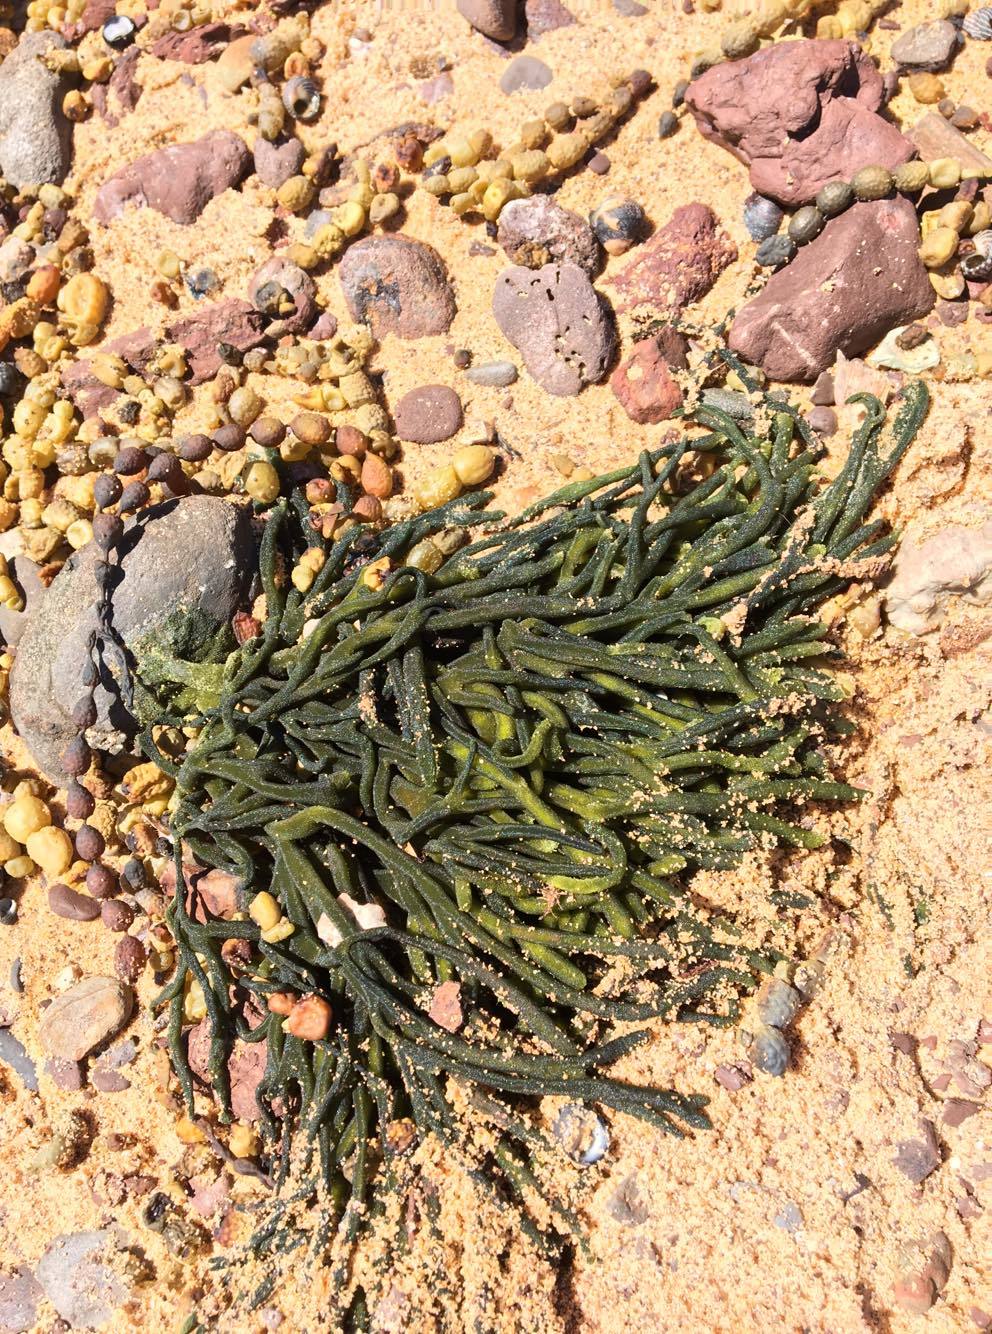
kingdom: Plantae
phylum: Chlorophyta
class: Ulvophyceae
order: Bryopsidales
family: Codiaceae
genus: Codium
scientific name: Codium fragile
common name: Dead man's fingers
